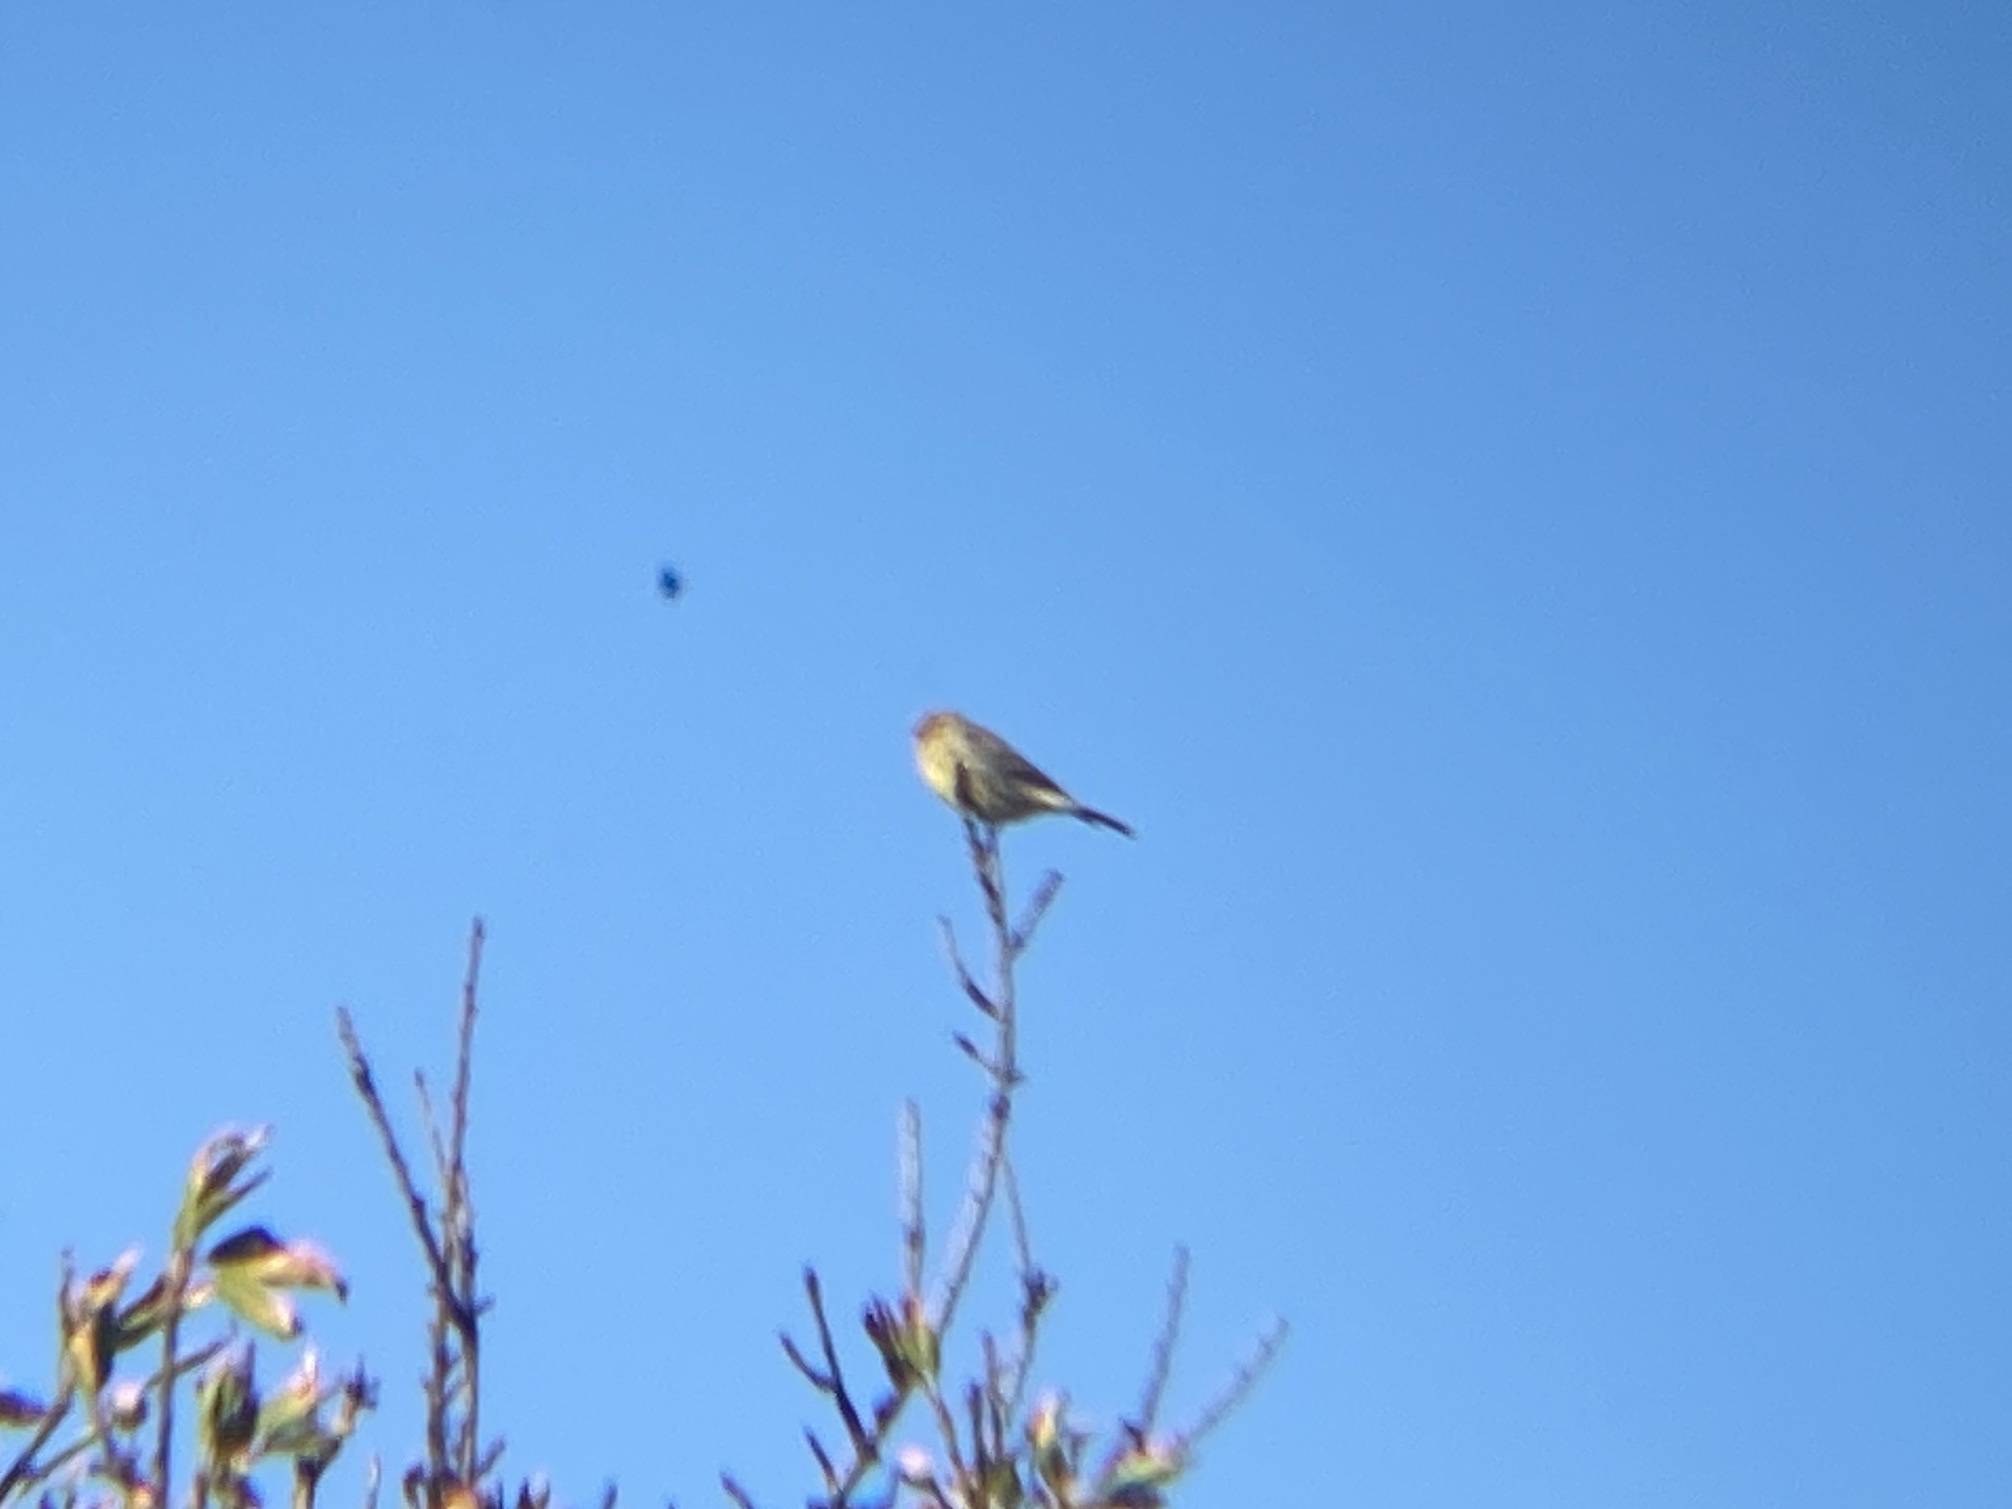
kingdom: Animalia
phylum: Chordata
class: Aves
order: Passeriformes
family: Fringillidae
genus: Serinus
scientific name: Serinus canaria
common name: Atlantic canary
